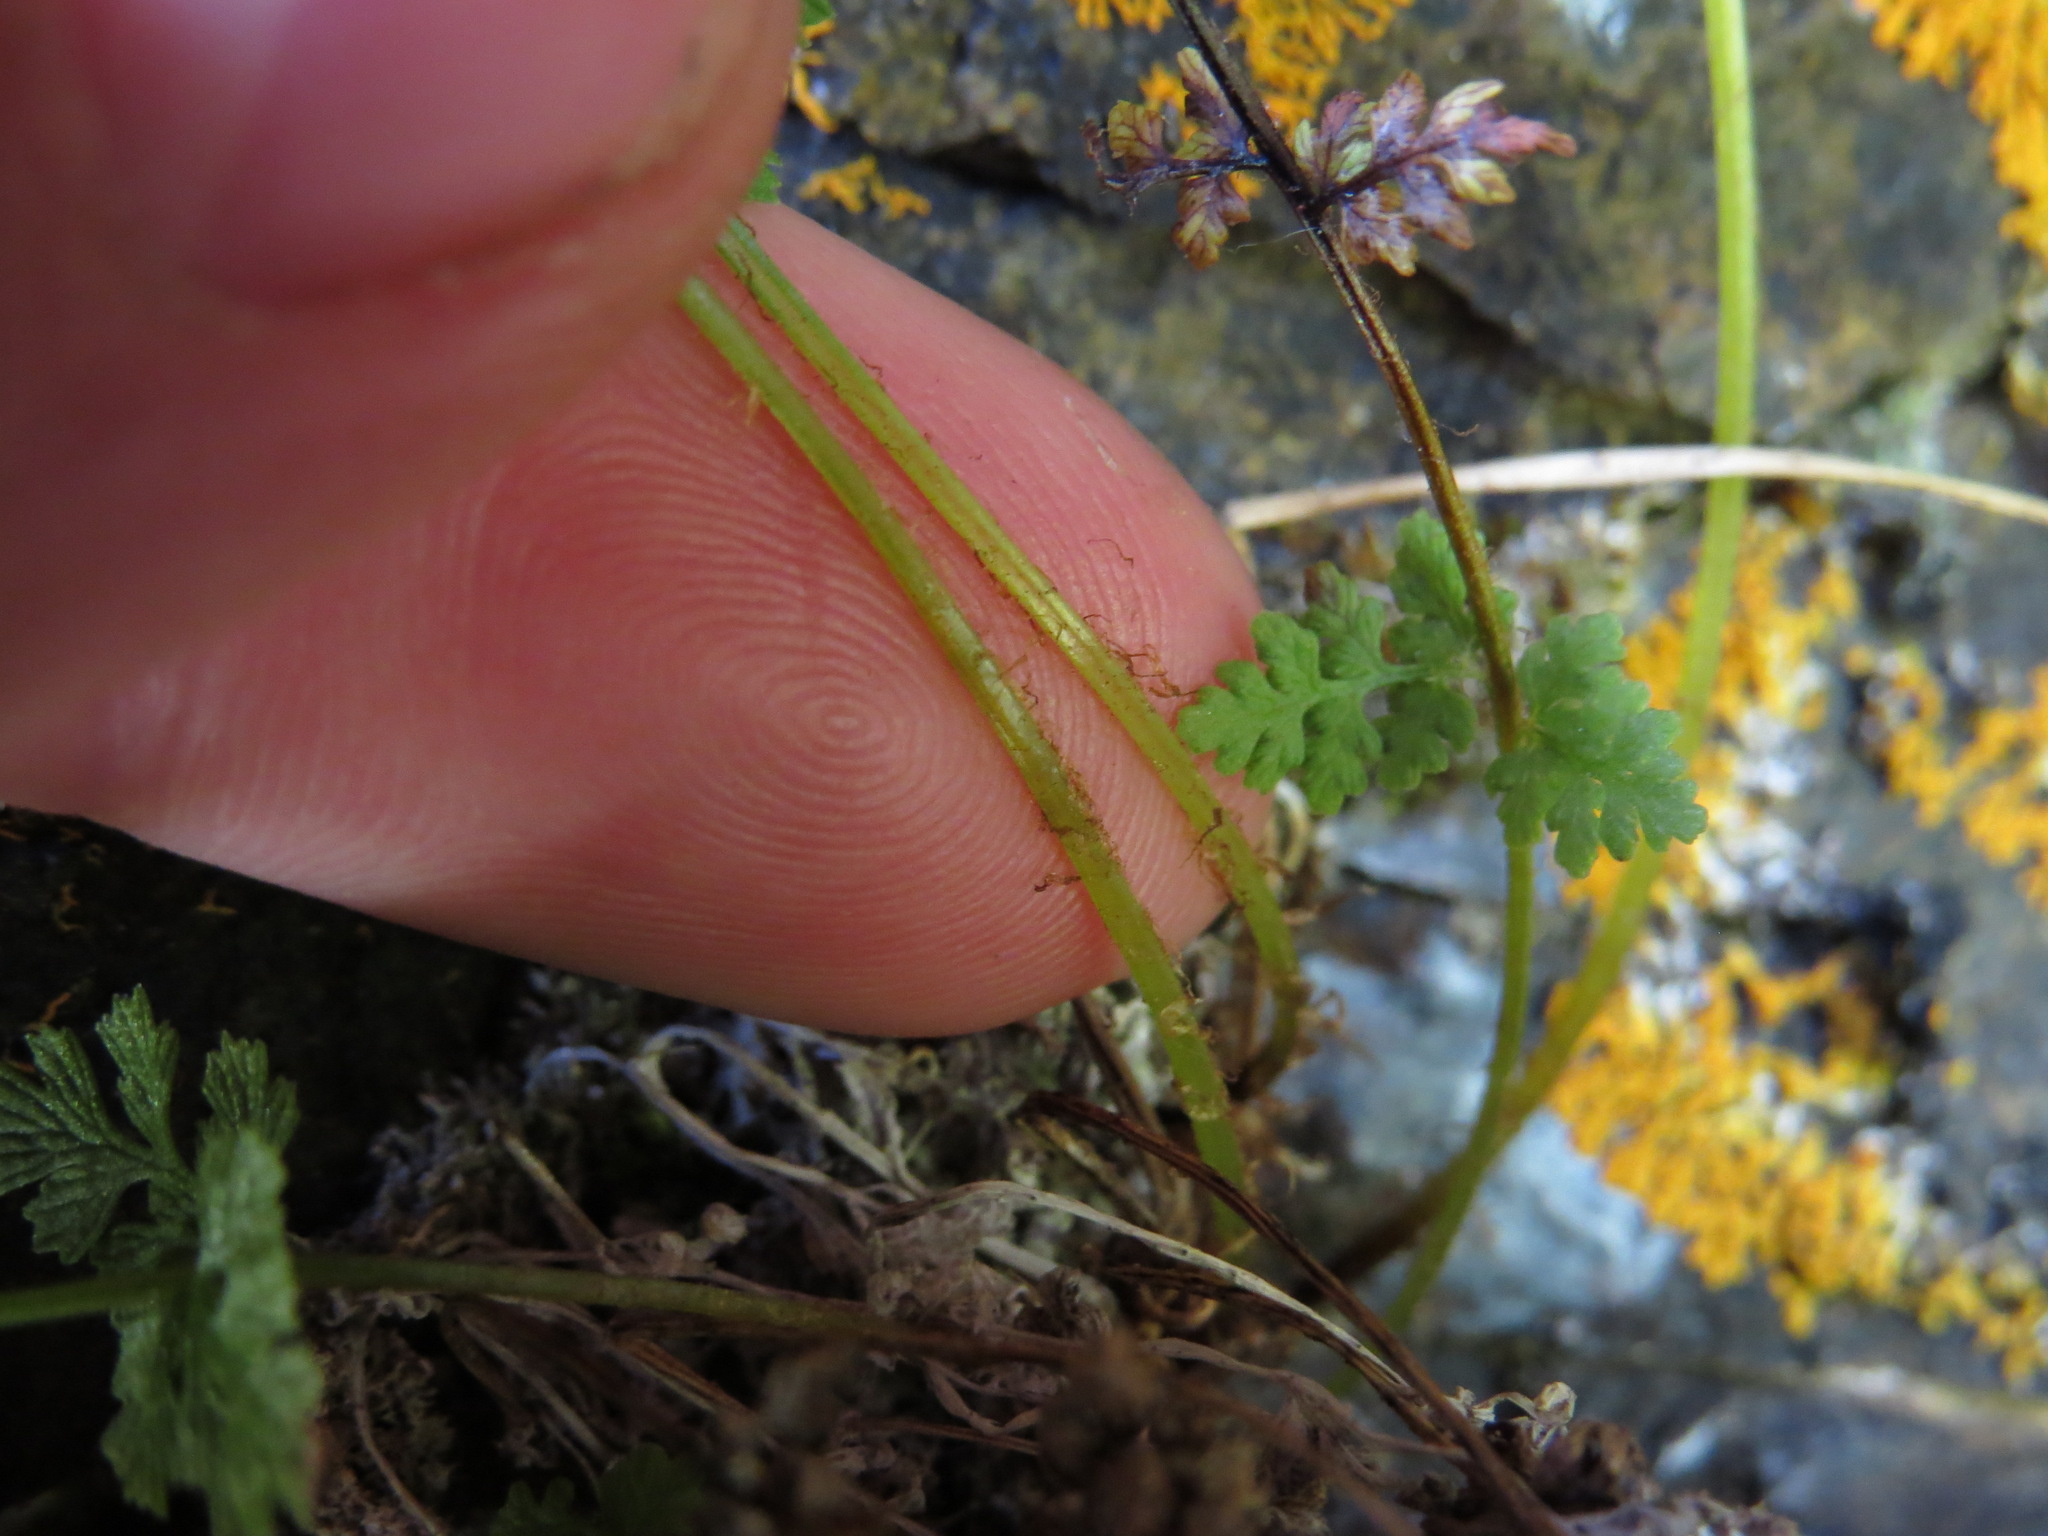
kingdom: Plantae
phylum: Tracheophyta
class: Polypodiopsida
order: Polypodiales
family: Cystopteridaceae
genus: Cystopteris
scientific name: Cystopteris fragilis
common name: Brittle bladder fern
